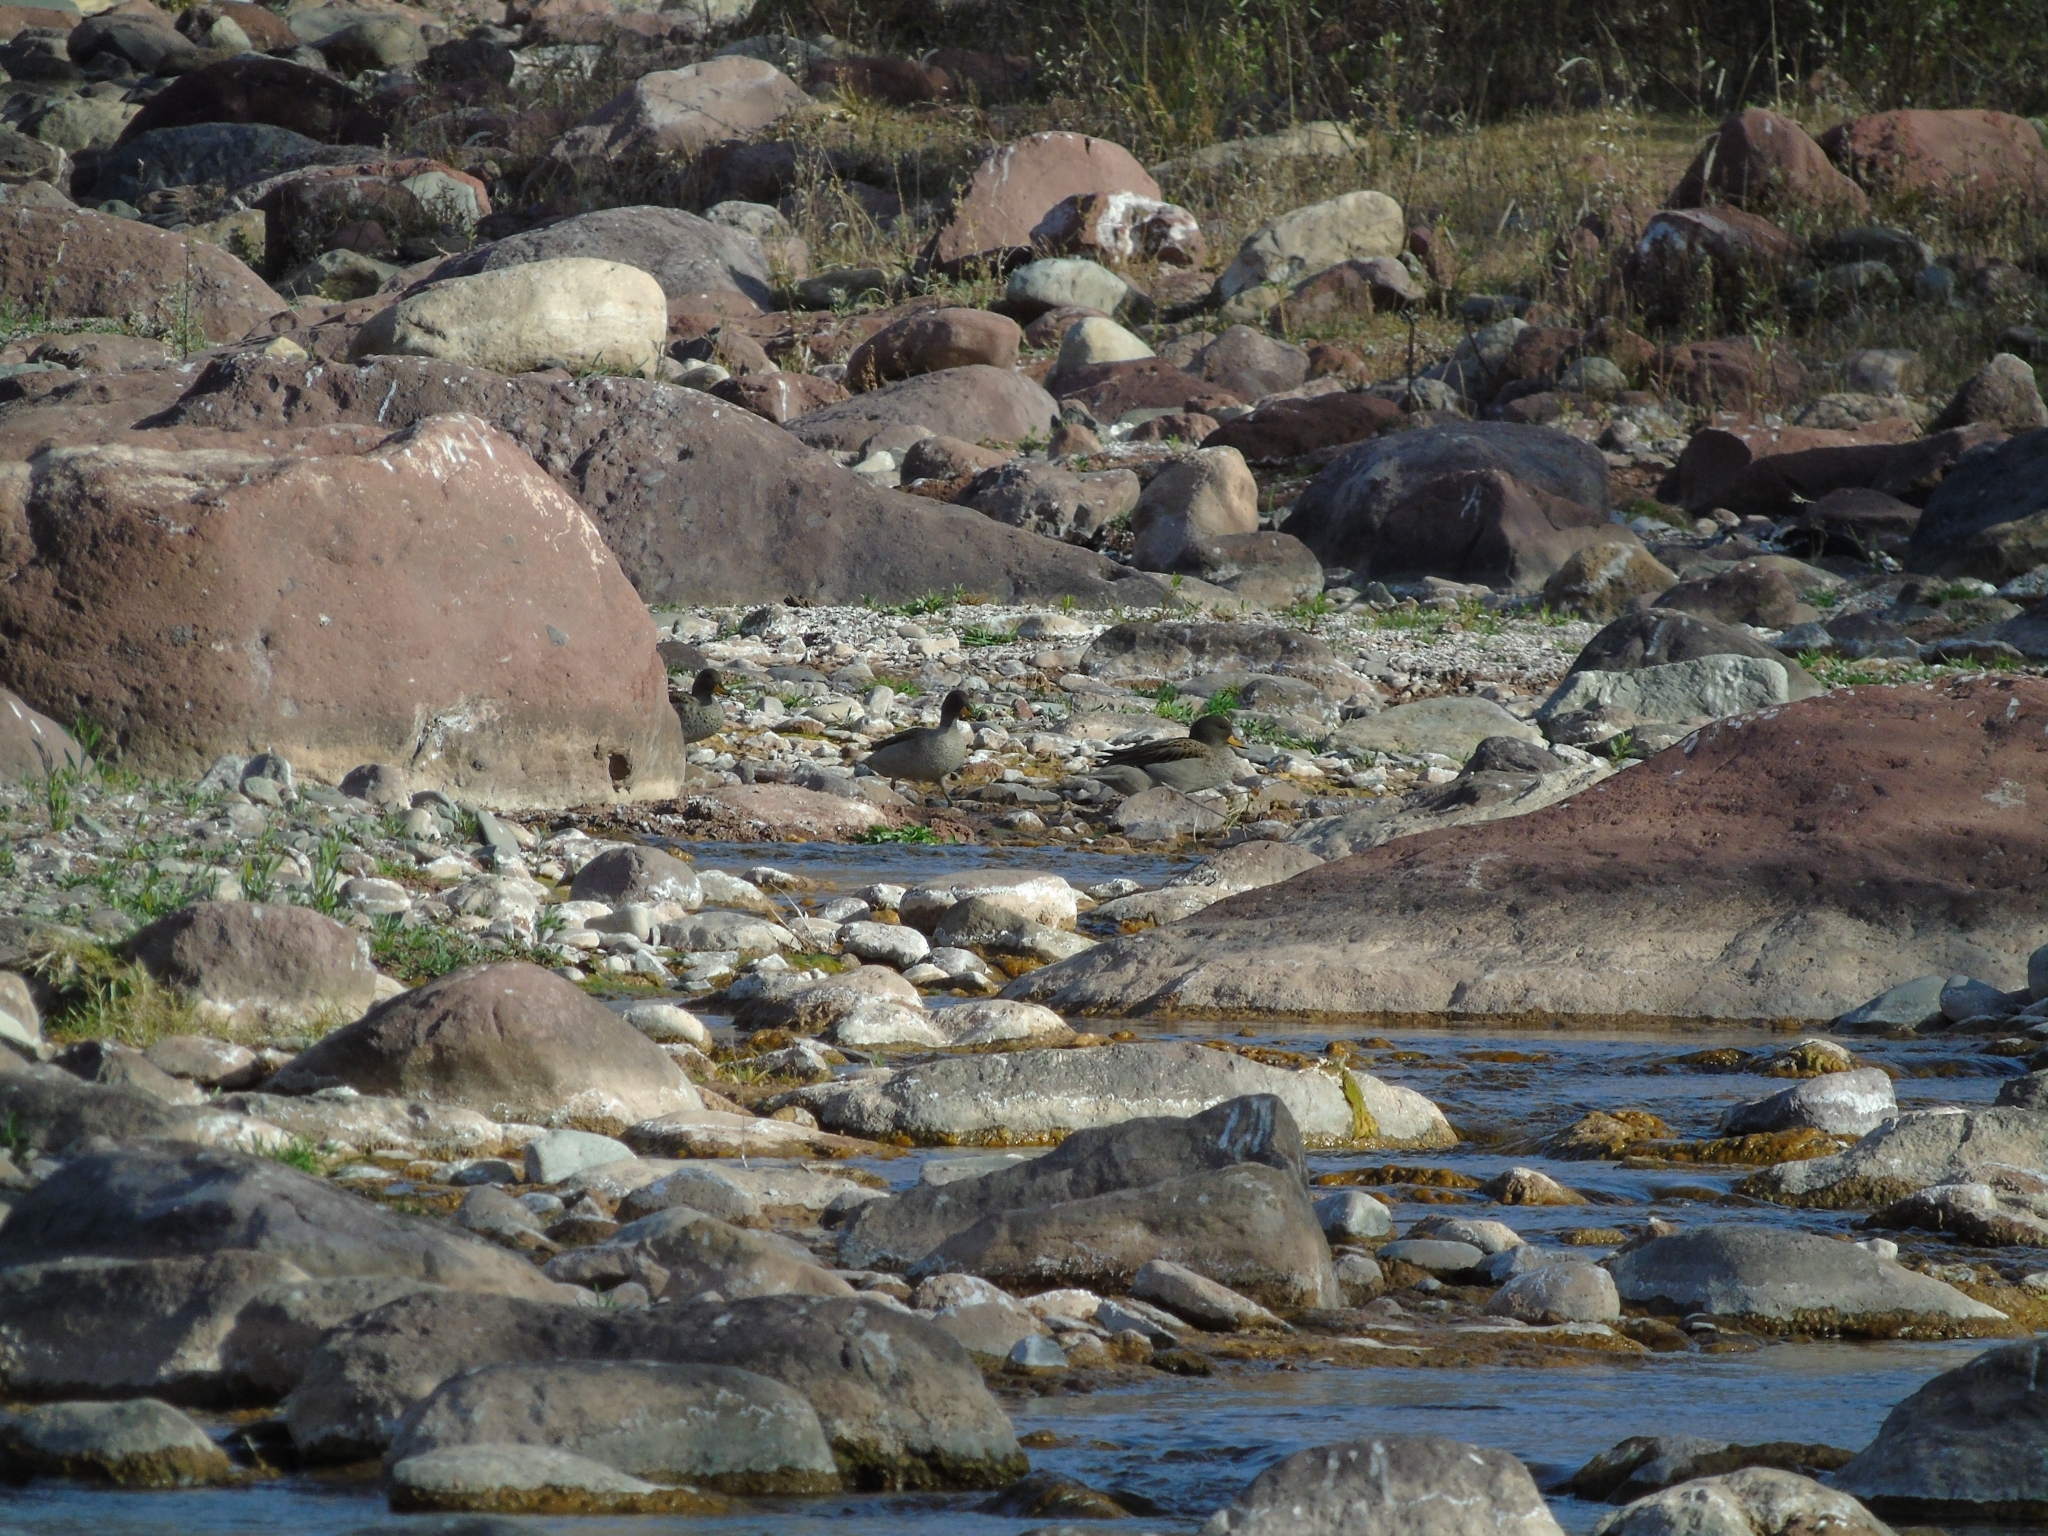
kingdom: Animalia
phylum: Chordata
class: Aves
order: Anseriformes
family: Anatidae
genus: Anas
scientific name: Anas flavirostris
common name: Yellow-billed teal
